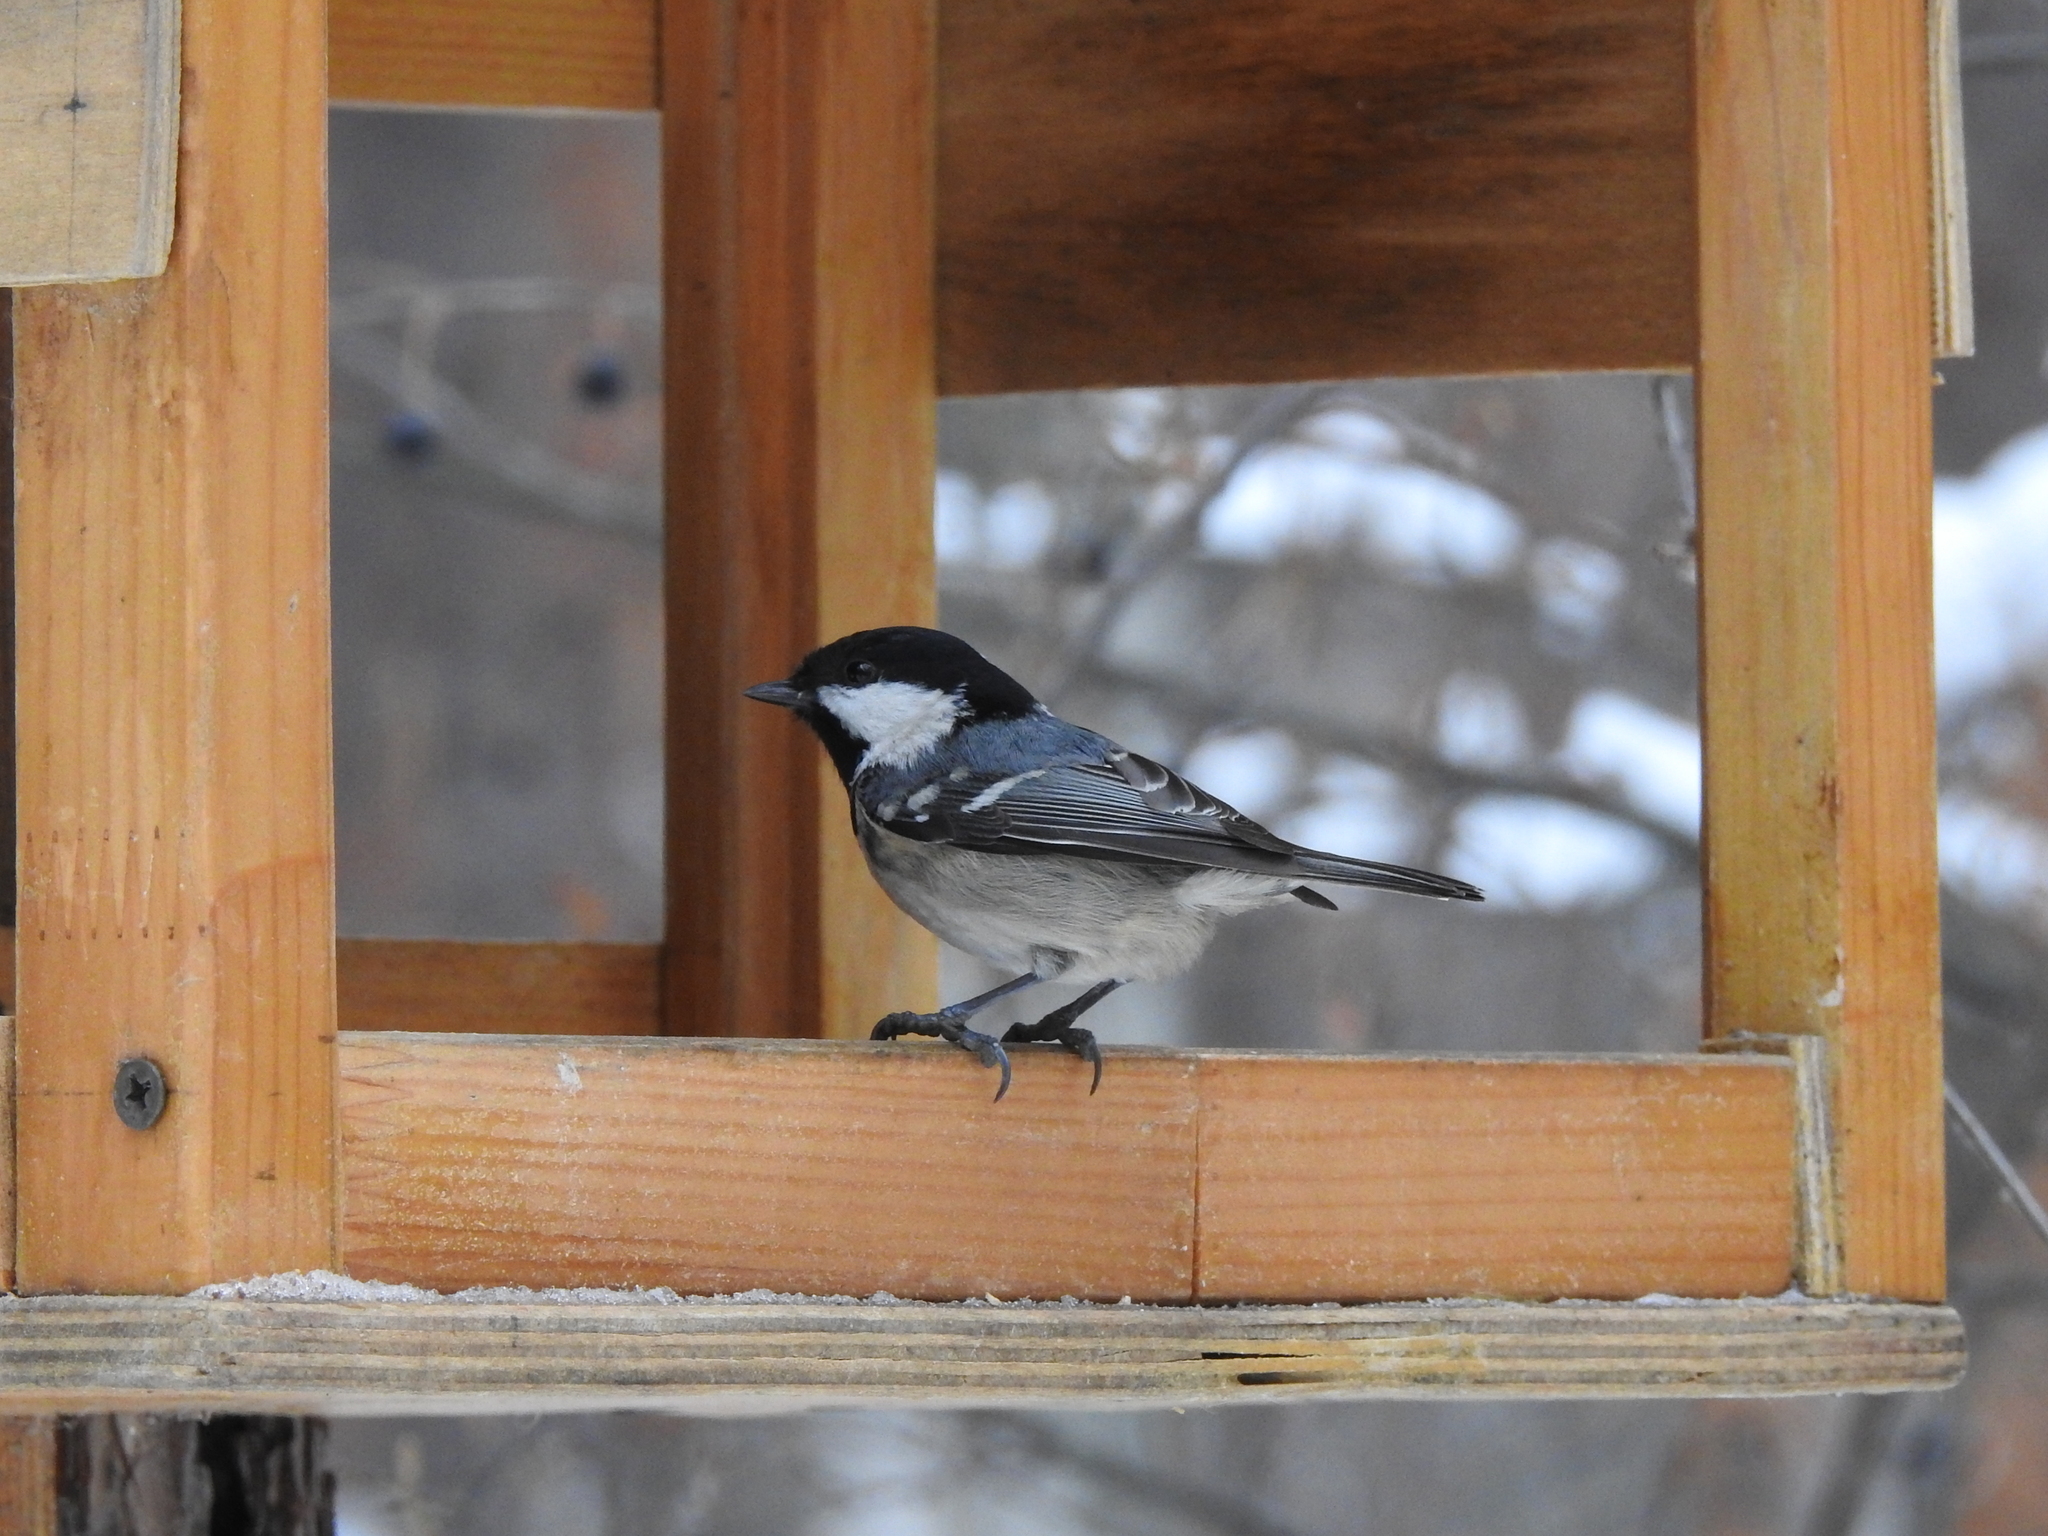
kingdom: Animalia
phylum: Chordata
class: Aves
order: Passeriformes
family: Paridae
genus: Periparus
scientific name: Periparus ater
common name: Coal tit
